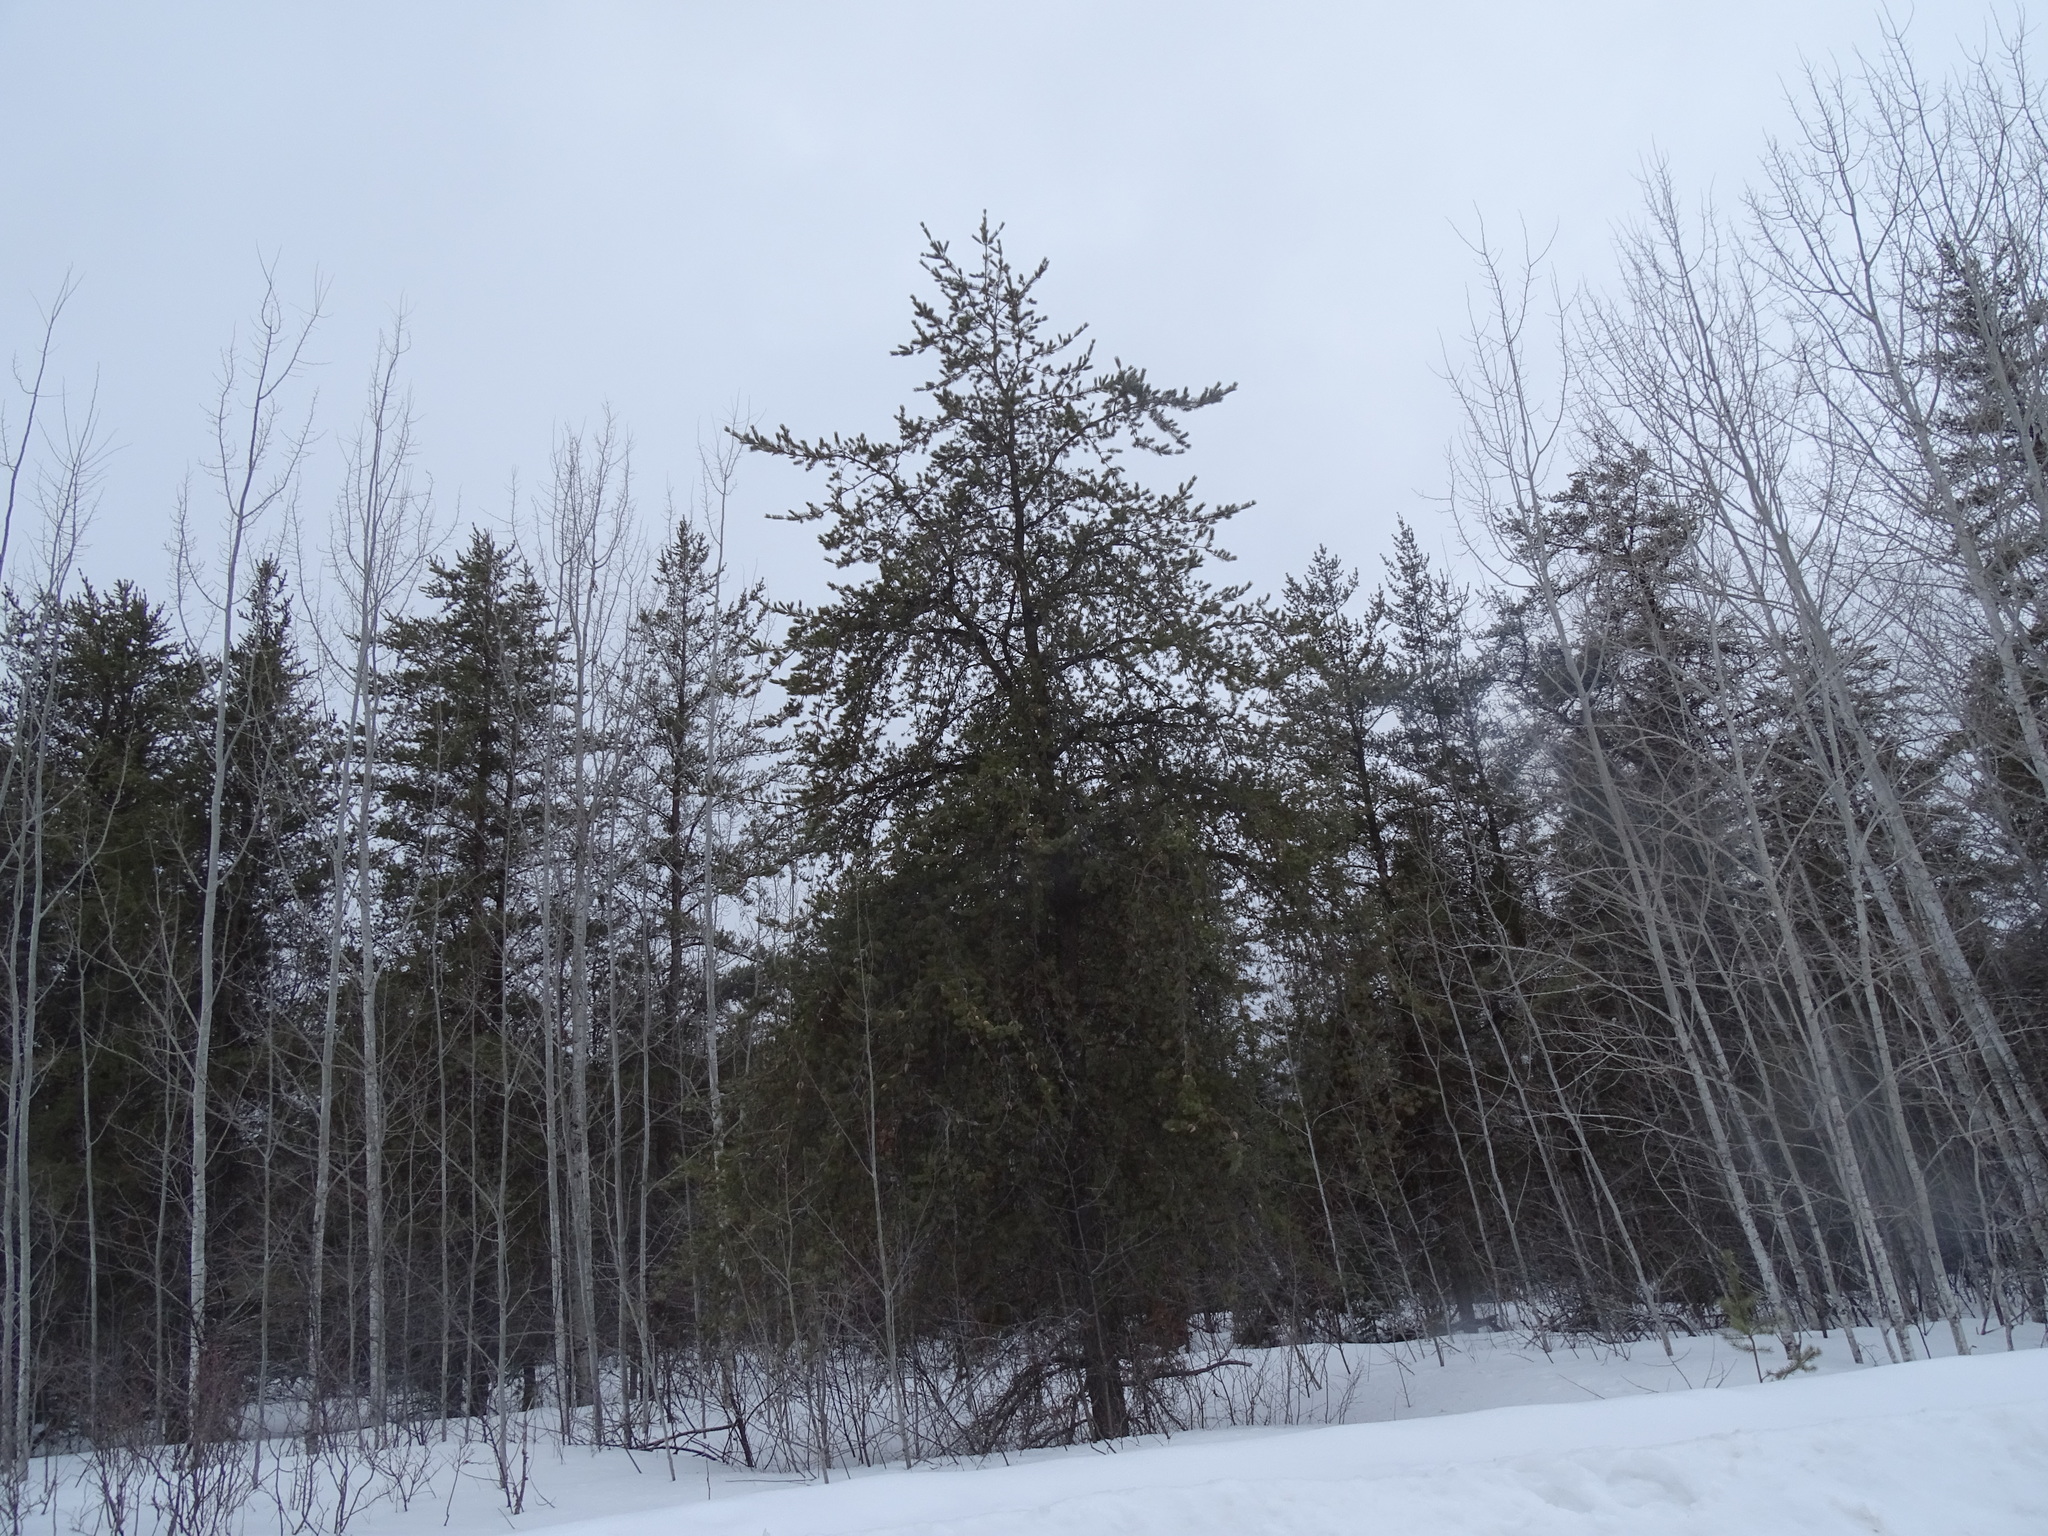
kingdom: Plantae
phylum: Tracheophyta
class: Pinopsida
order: Pinales
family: Pinaceae
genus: Pinus
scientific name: Pinus banksiana
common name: Jack pine
